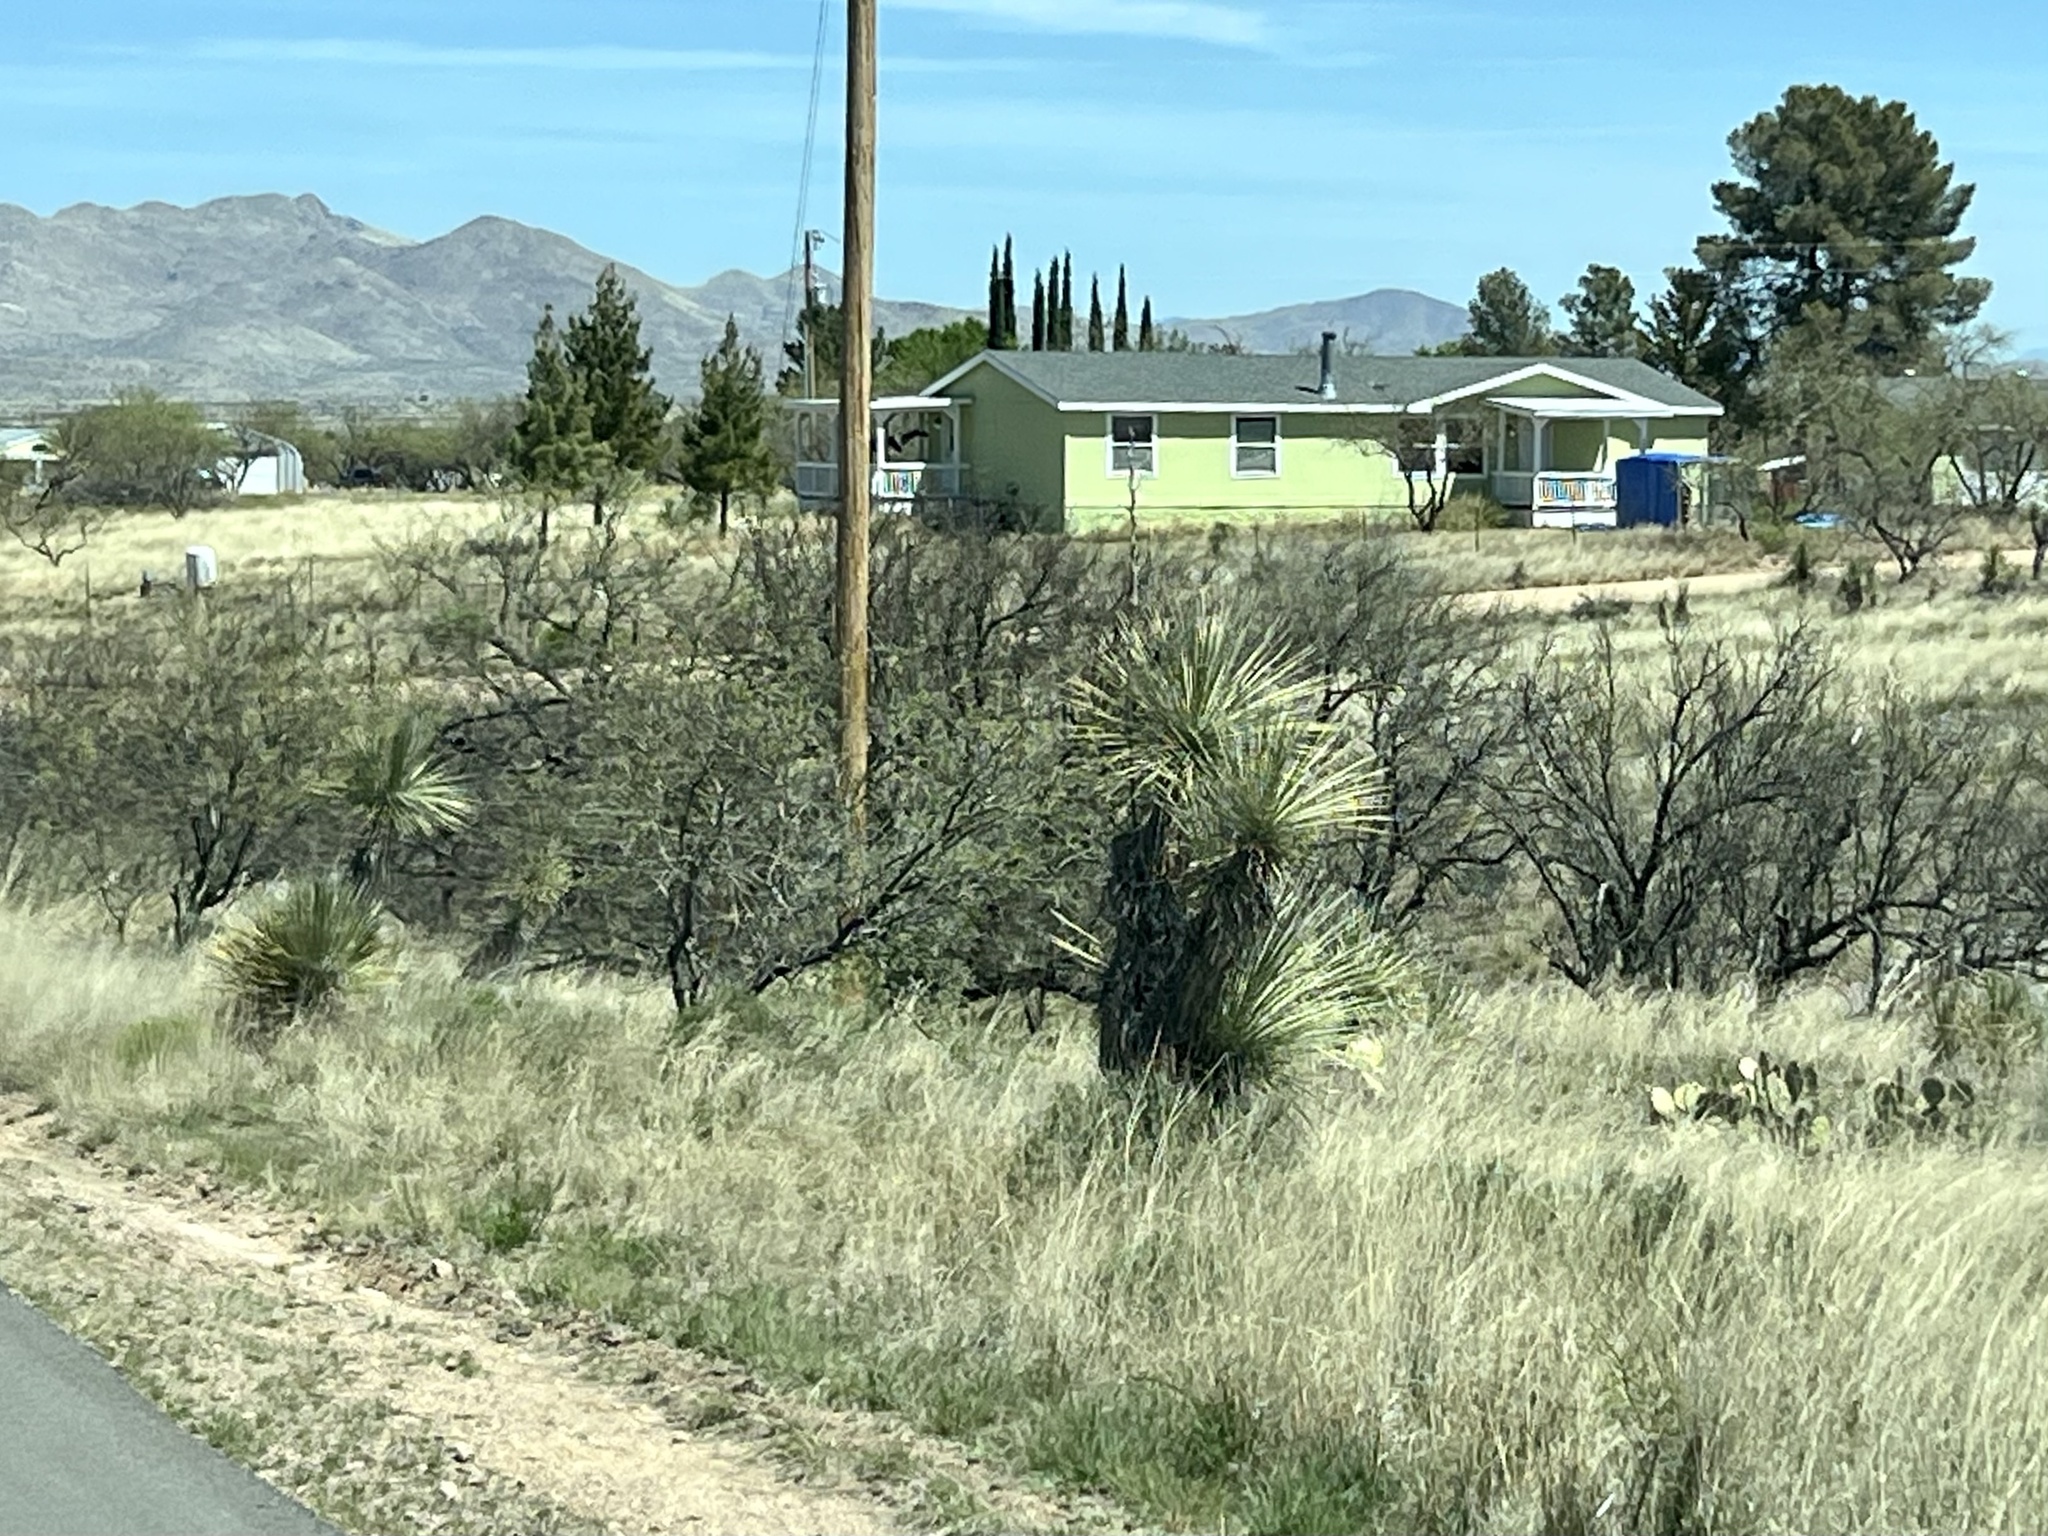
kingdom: Plantae
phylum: Tracheophyta
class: Liliopsida
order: Asparagales
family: Asparagaceae
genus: Yucca
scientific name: Yucca elata
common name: Palmella
